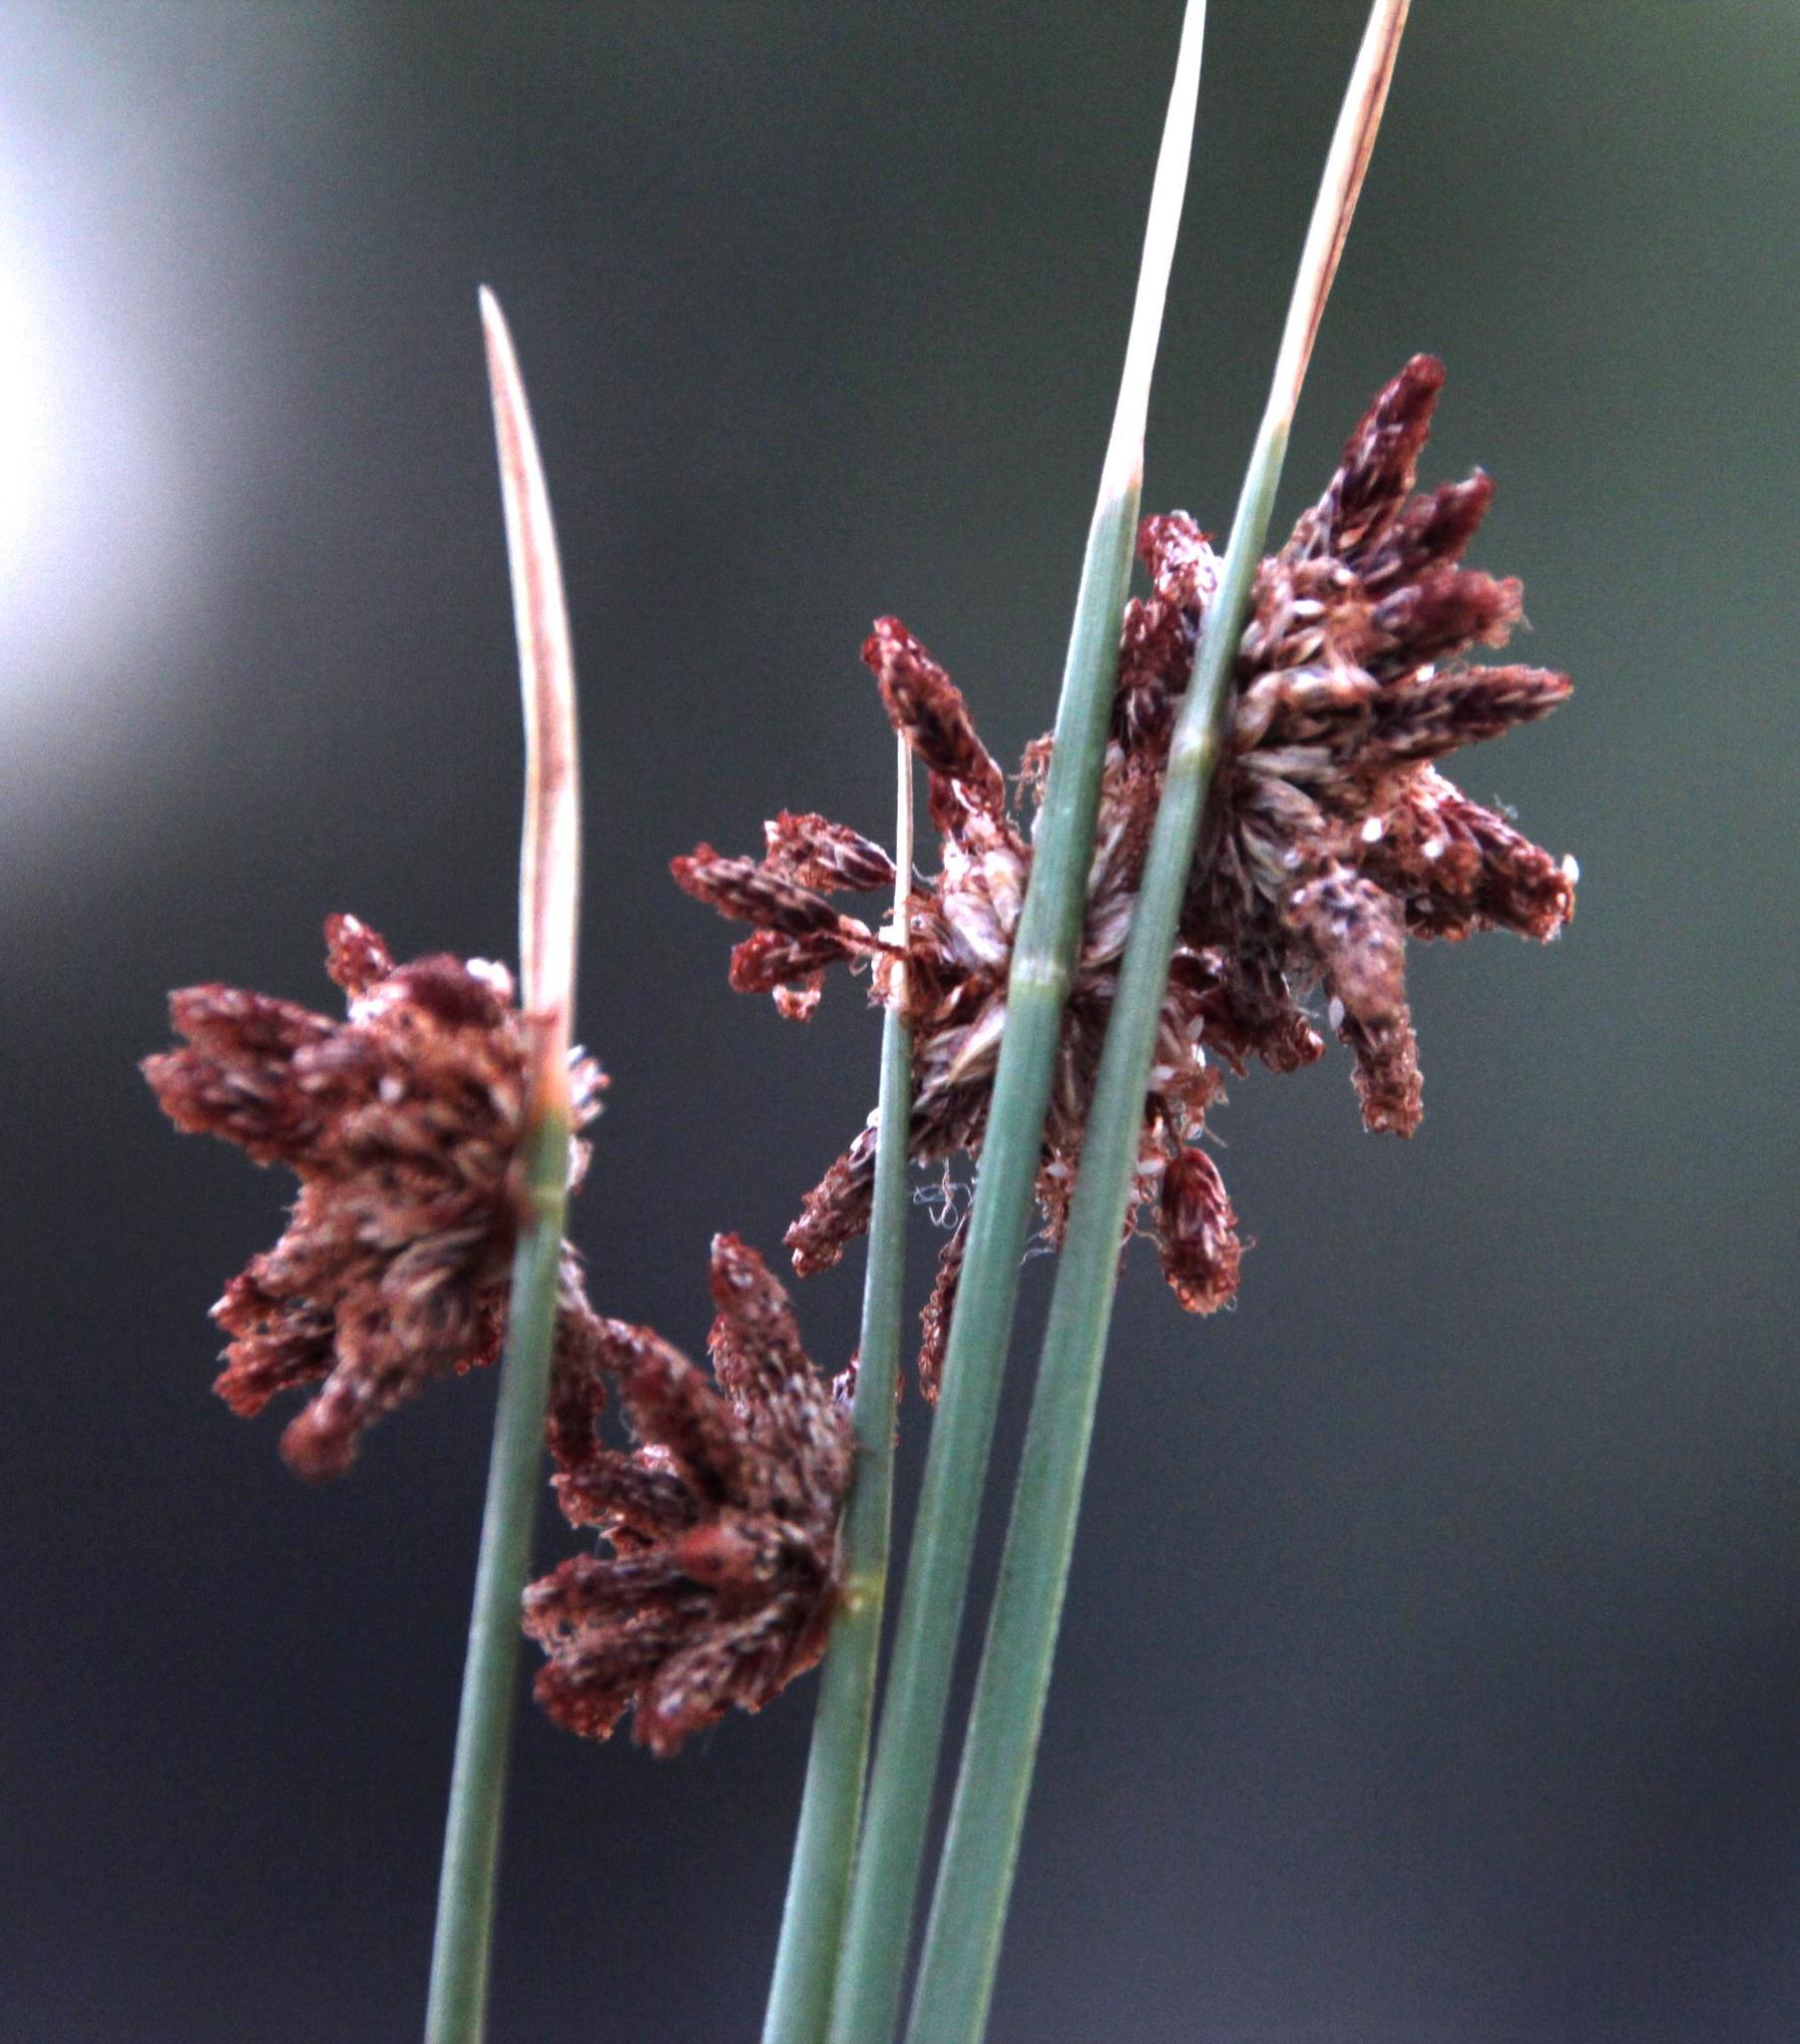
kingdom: Plantae
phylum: Tracheophyta
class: Liliopsida
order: Poales
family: Cyperaceae
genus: Afroscirpoides
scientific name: Afroscirpoides dioeca
